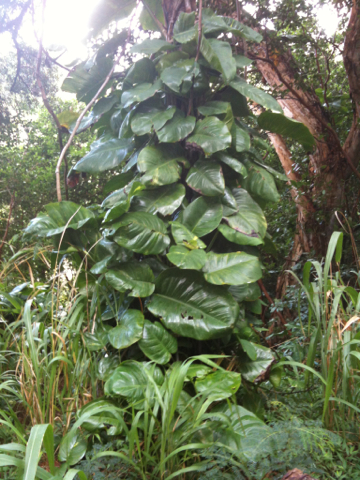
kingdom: Plantae
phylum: Tracheophyta
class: Liliopsida
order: Alismatales
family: Araceae
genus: Epipremnum
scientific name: Epipremnum aureum
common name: Golden hunter's-robe
